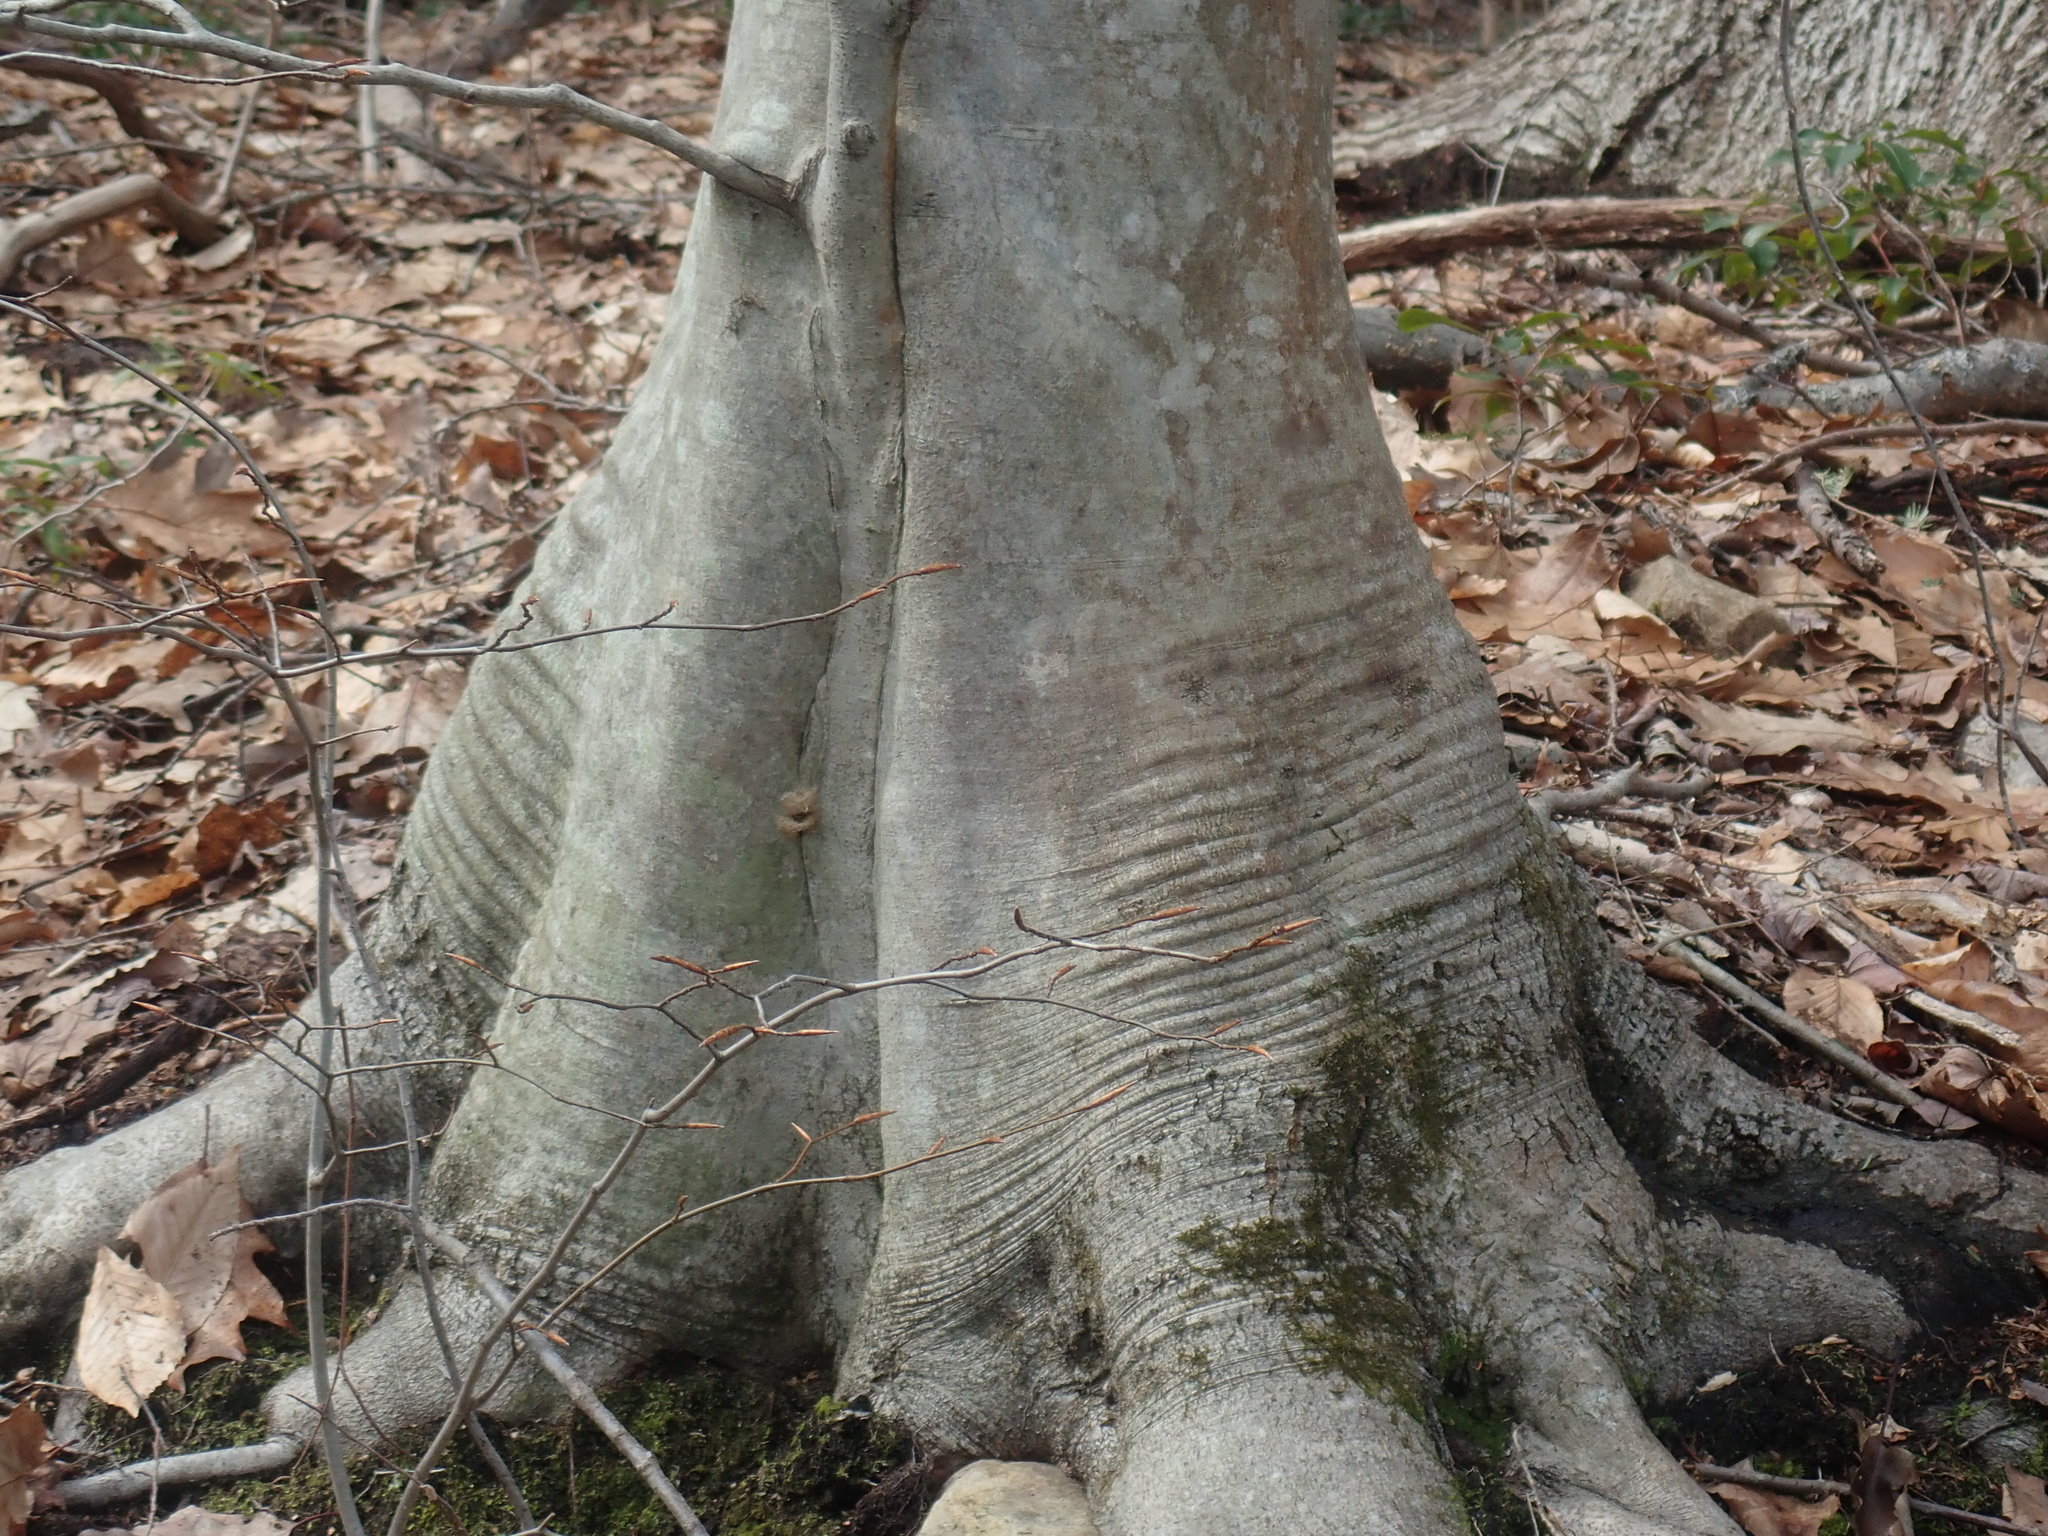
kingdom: Plantae
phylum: Tracheophyta
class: Magnoliopsida
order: Fagales
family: Fagaceae
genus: Fagus
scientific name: Fagus grandifolia
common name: American beech
